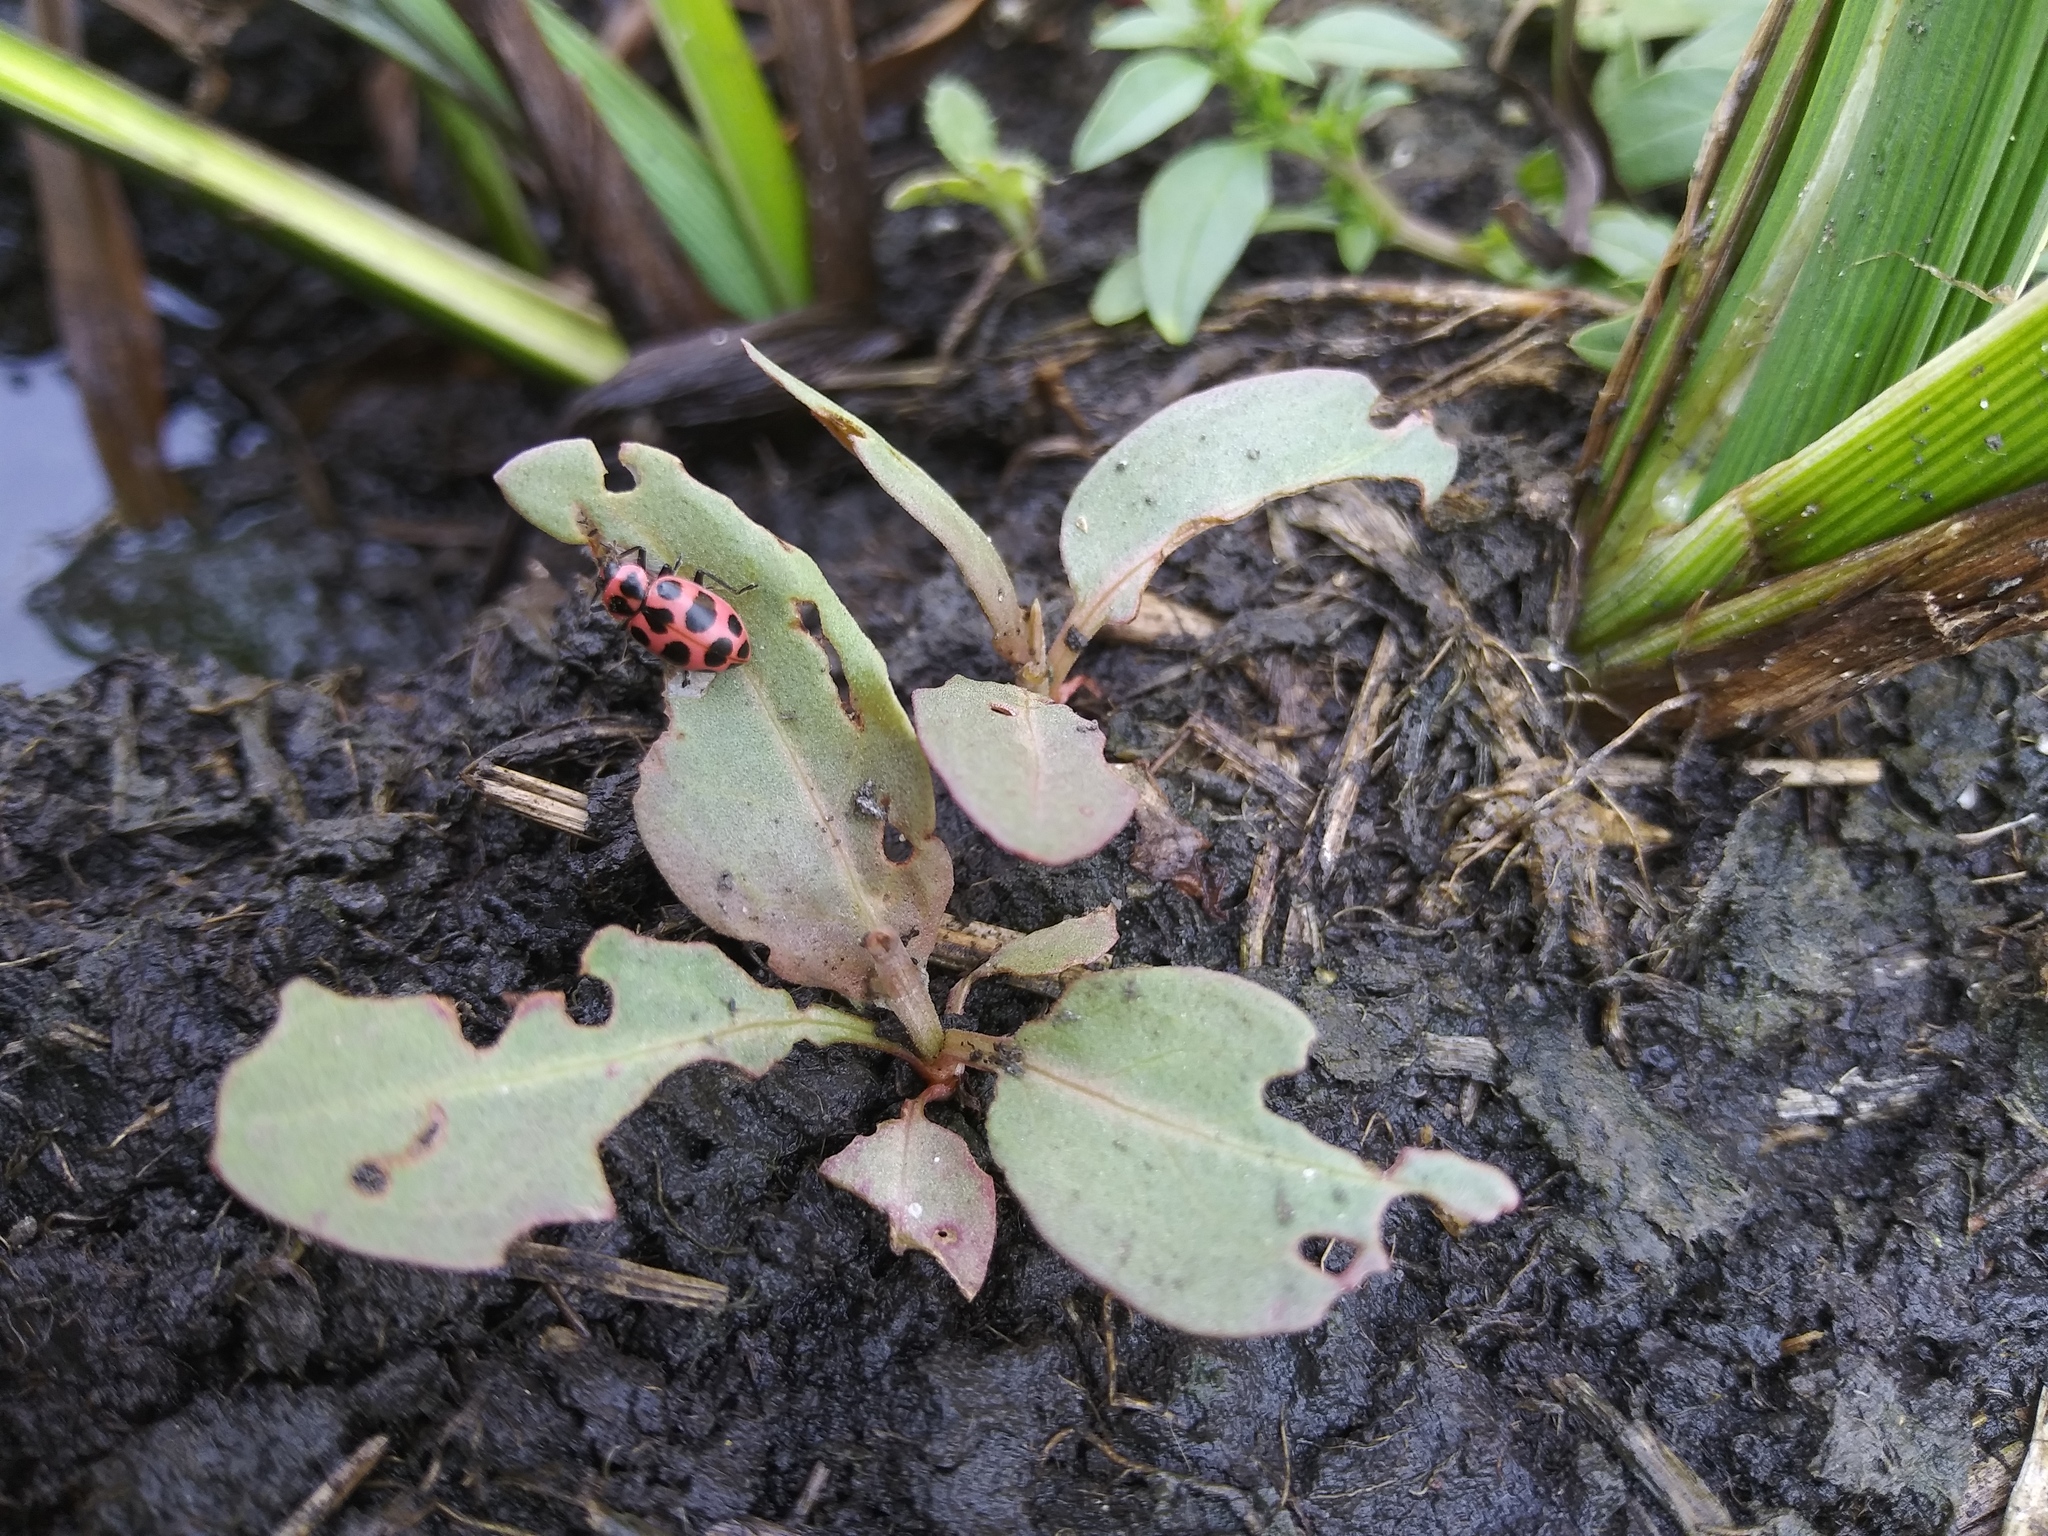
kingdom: Animalia
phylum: Arthropoda
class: Insecta
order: Coleoptera
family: Coccinellidae
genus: Coleomegilla
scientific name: Coleomegilla maculata
